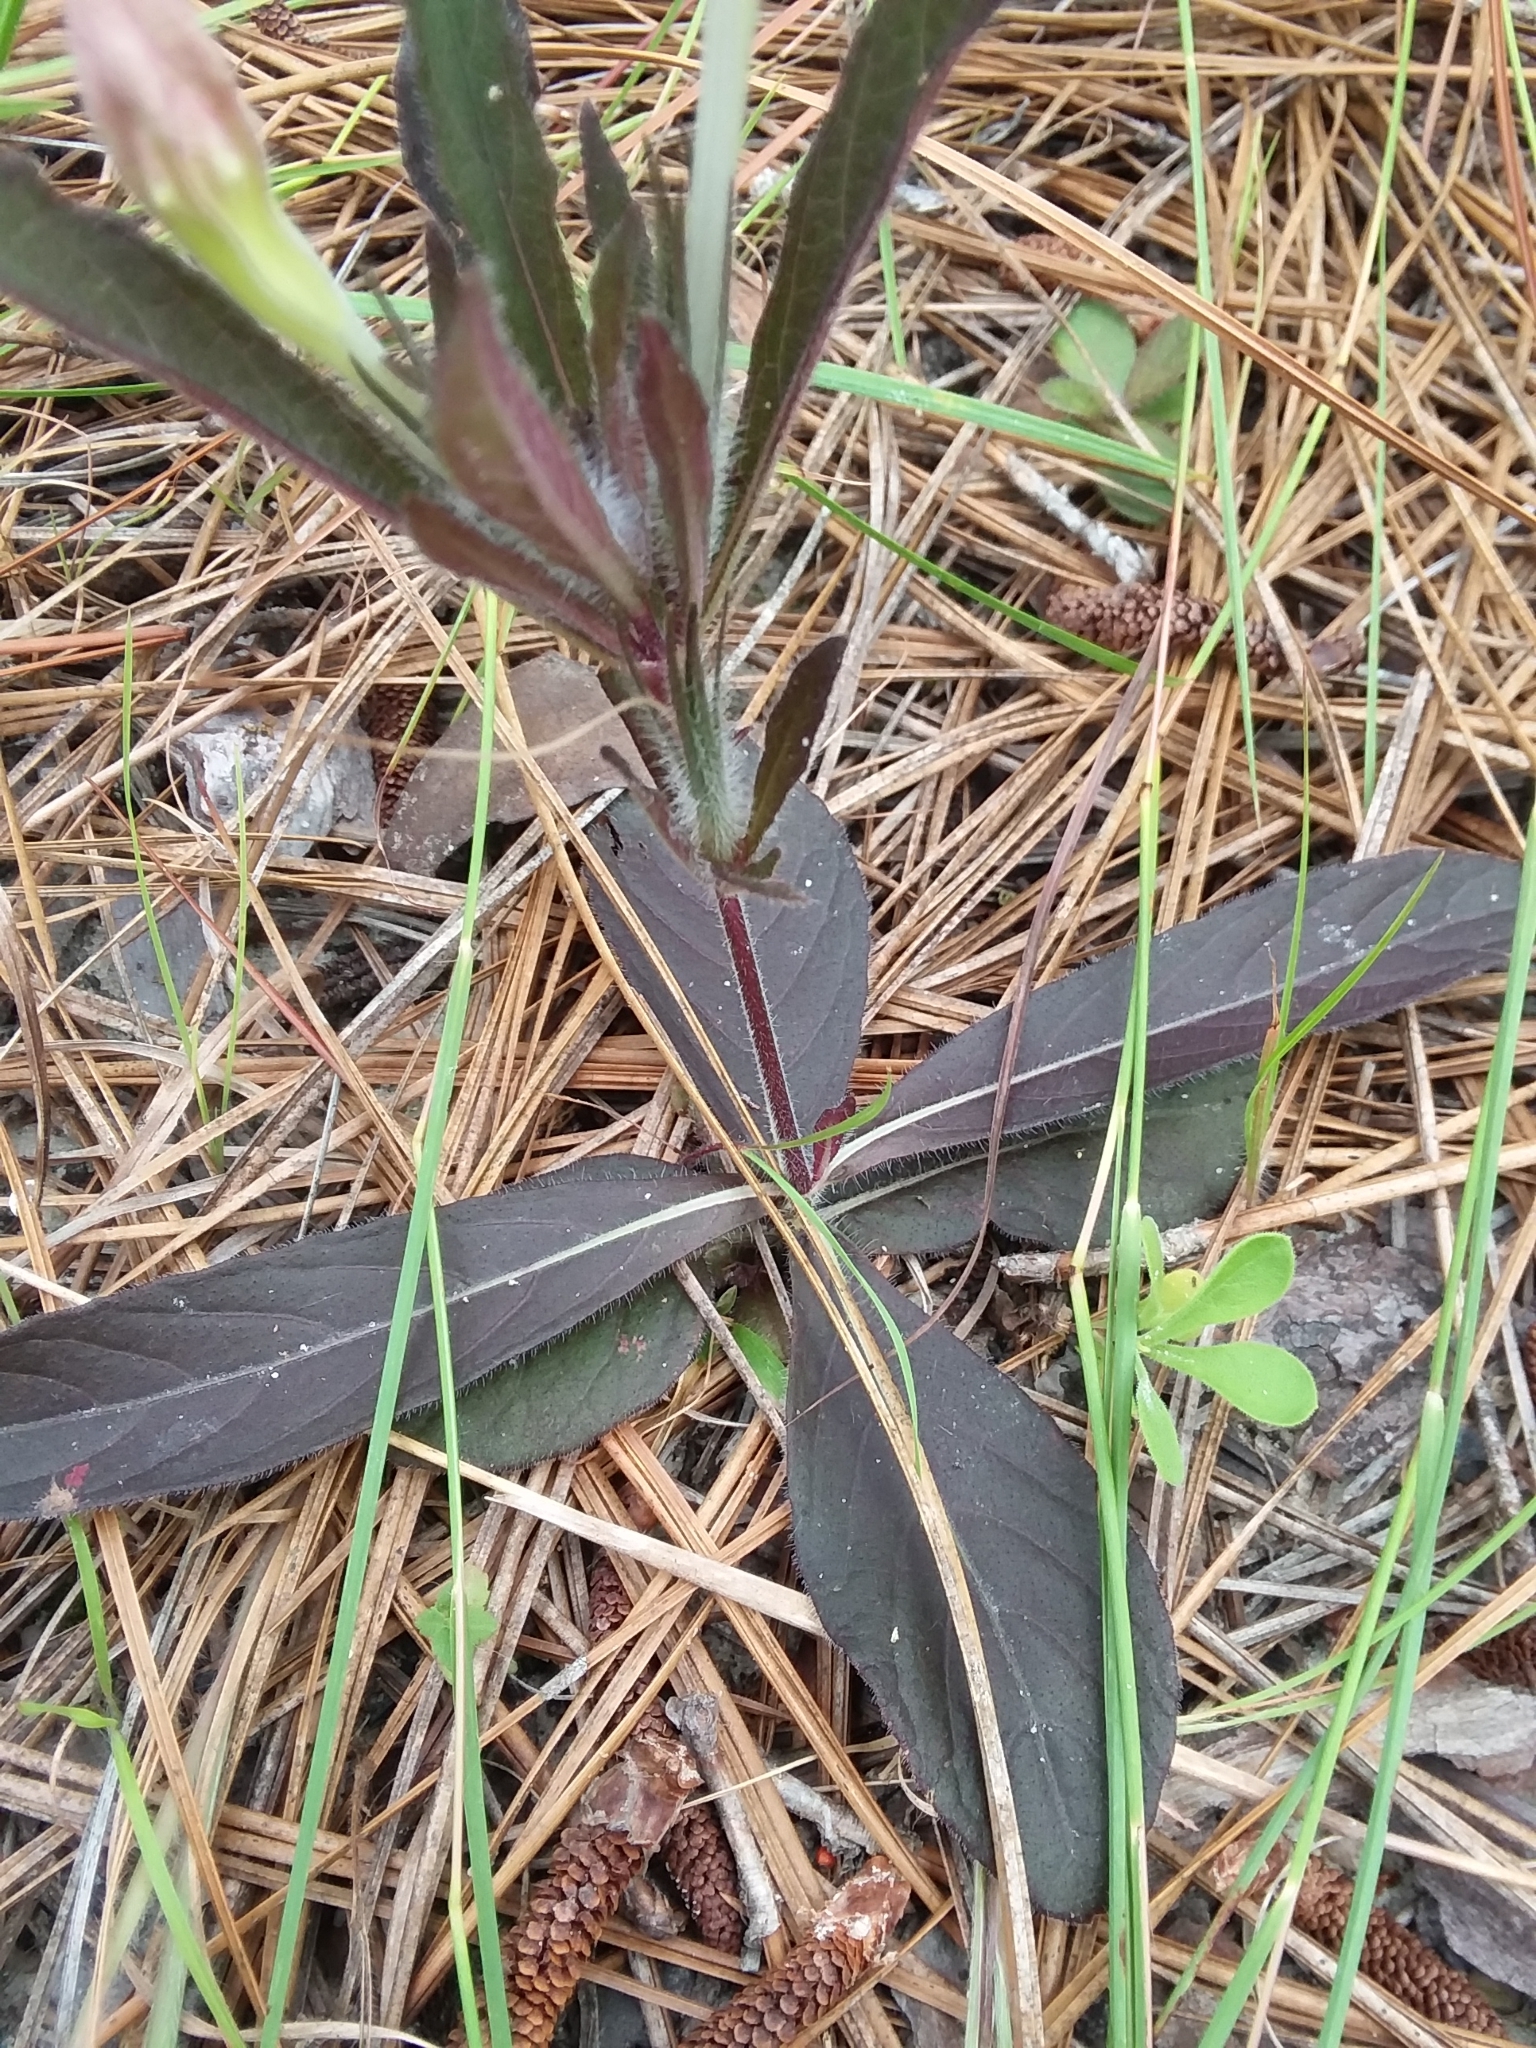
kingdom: Plantae
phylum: Tracheophyta
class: Magnoliopsida
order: Lamiales
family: Acanthaceae
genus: Ruellia
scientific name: Ruellia caroliniensis
